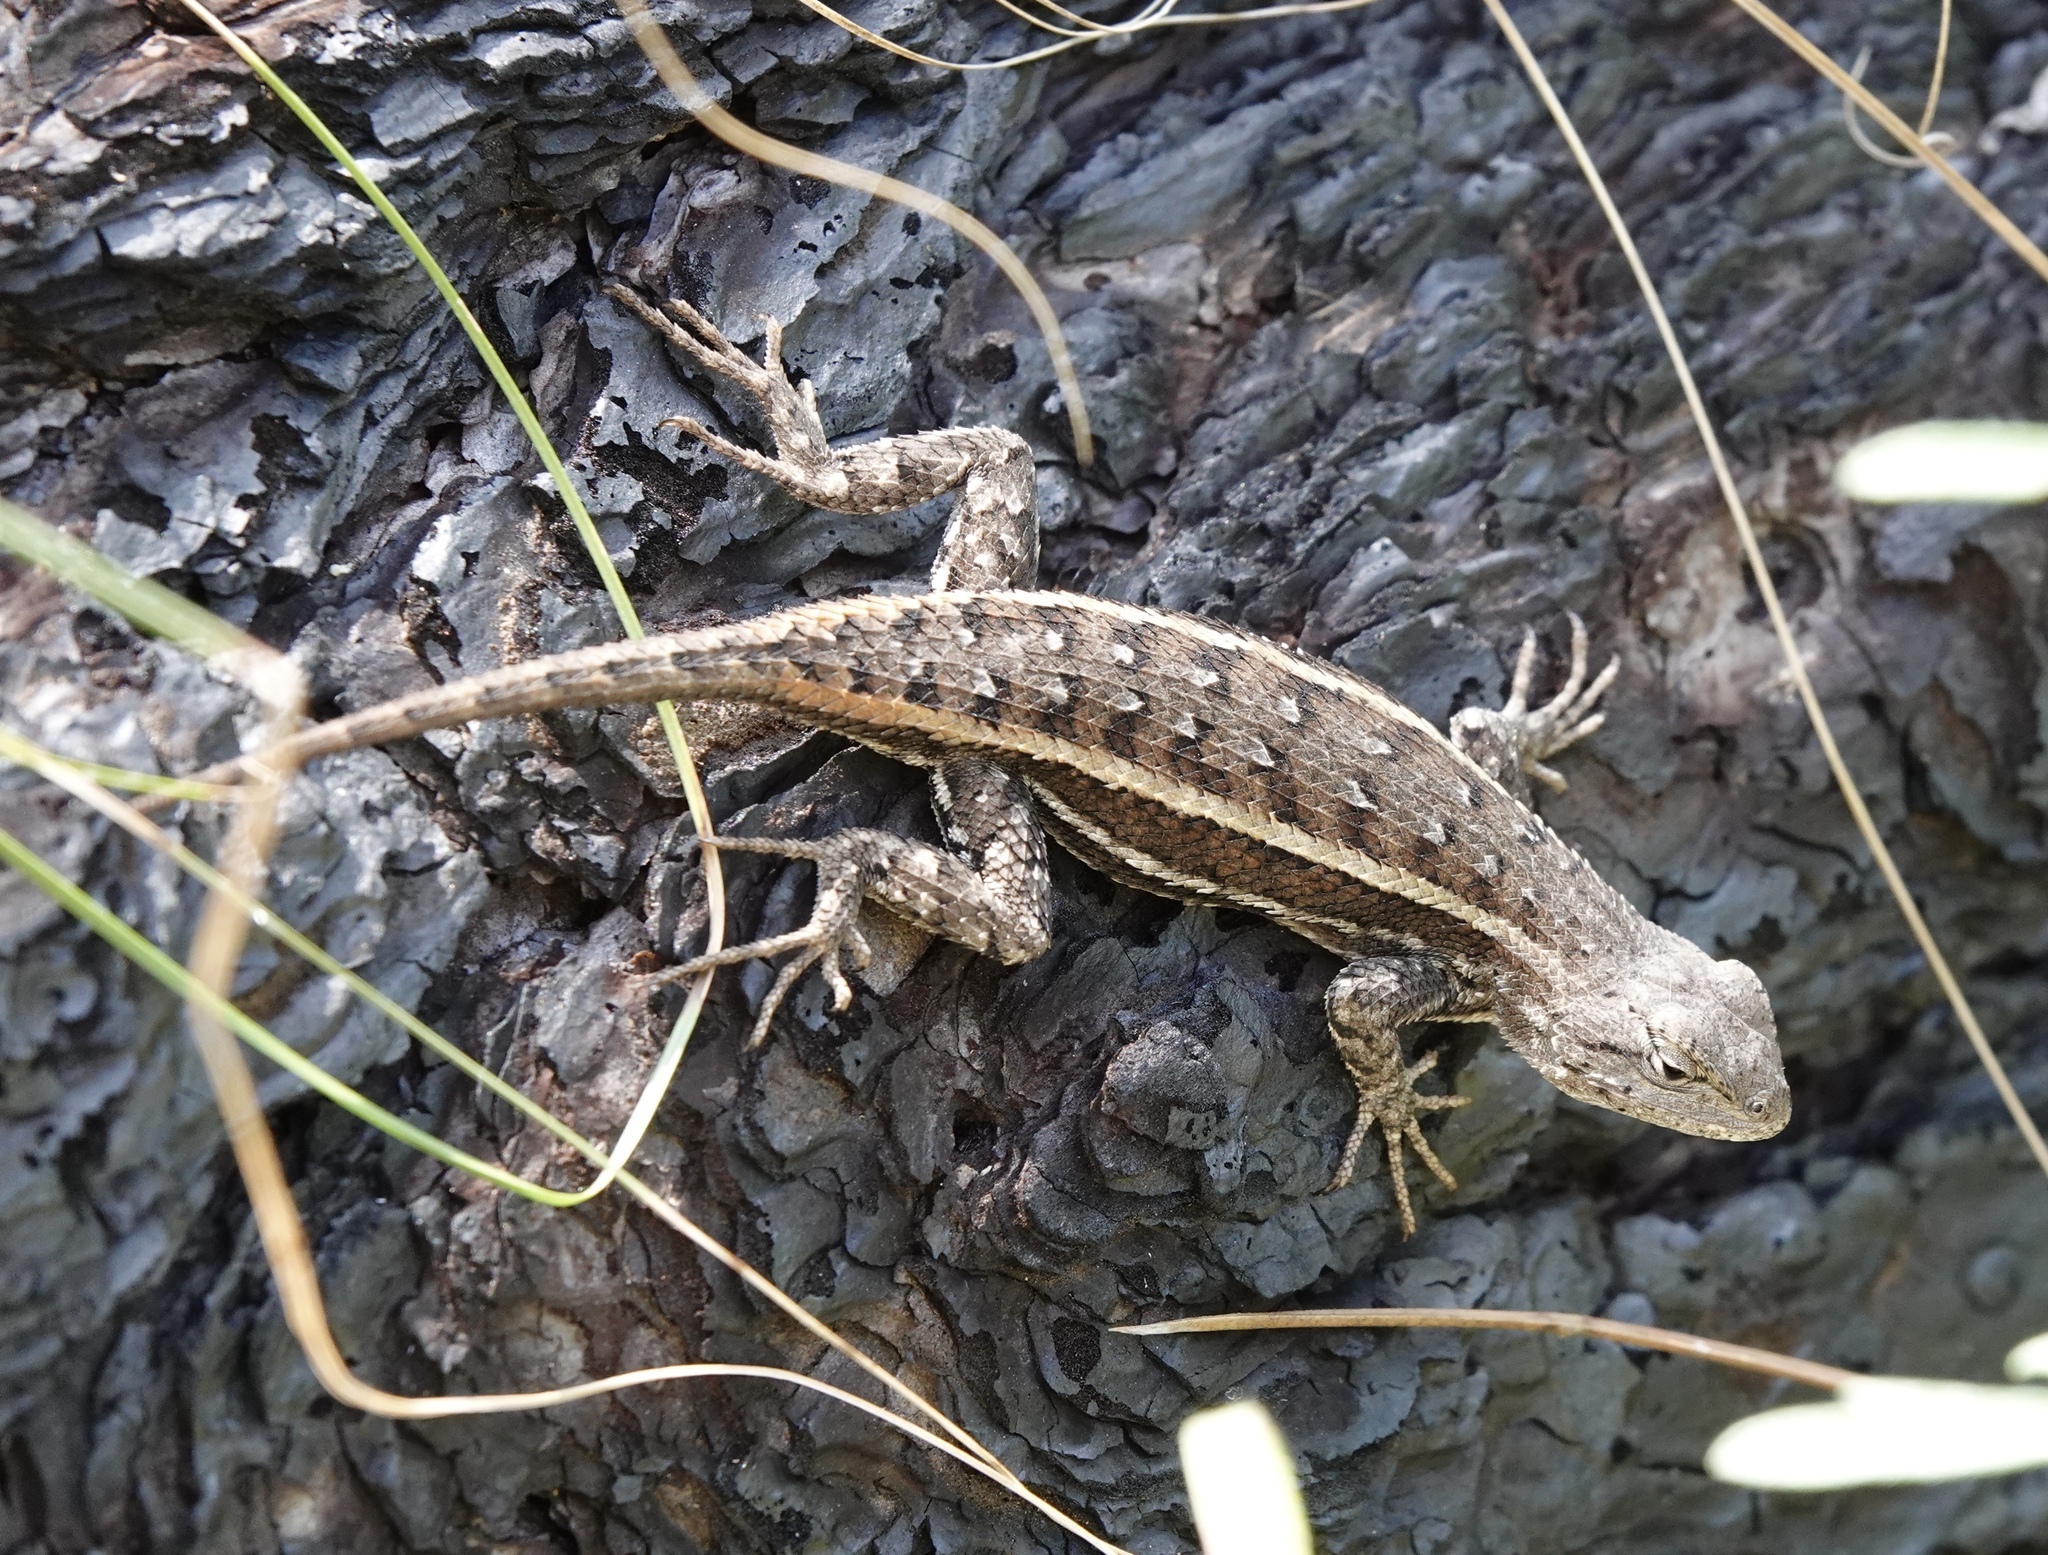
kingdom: Animalia
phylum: Chordata
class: Squamata
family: Phrynosomatidae
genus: Sceloporus
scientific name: Sceloporus virgatus
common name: Striped plateau lizard
